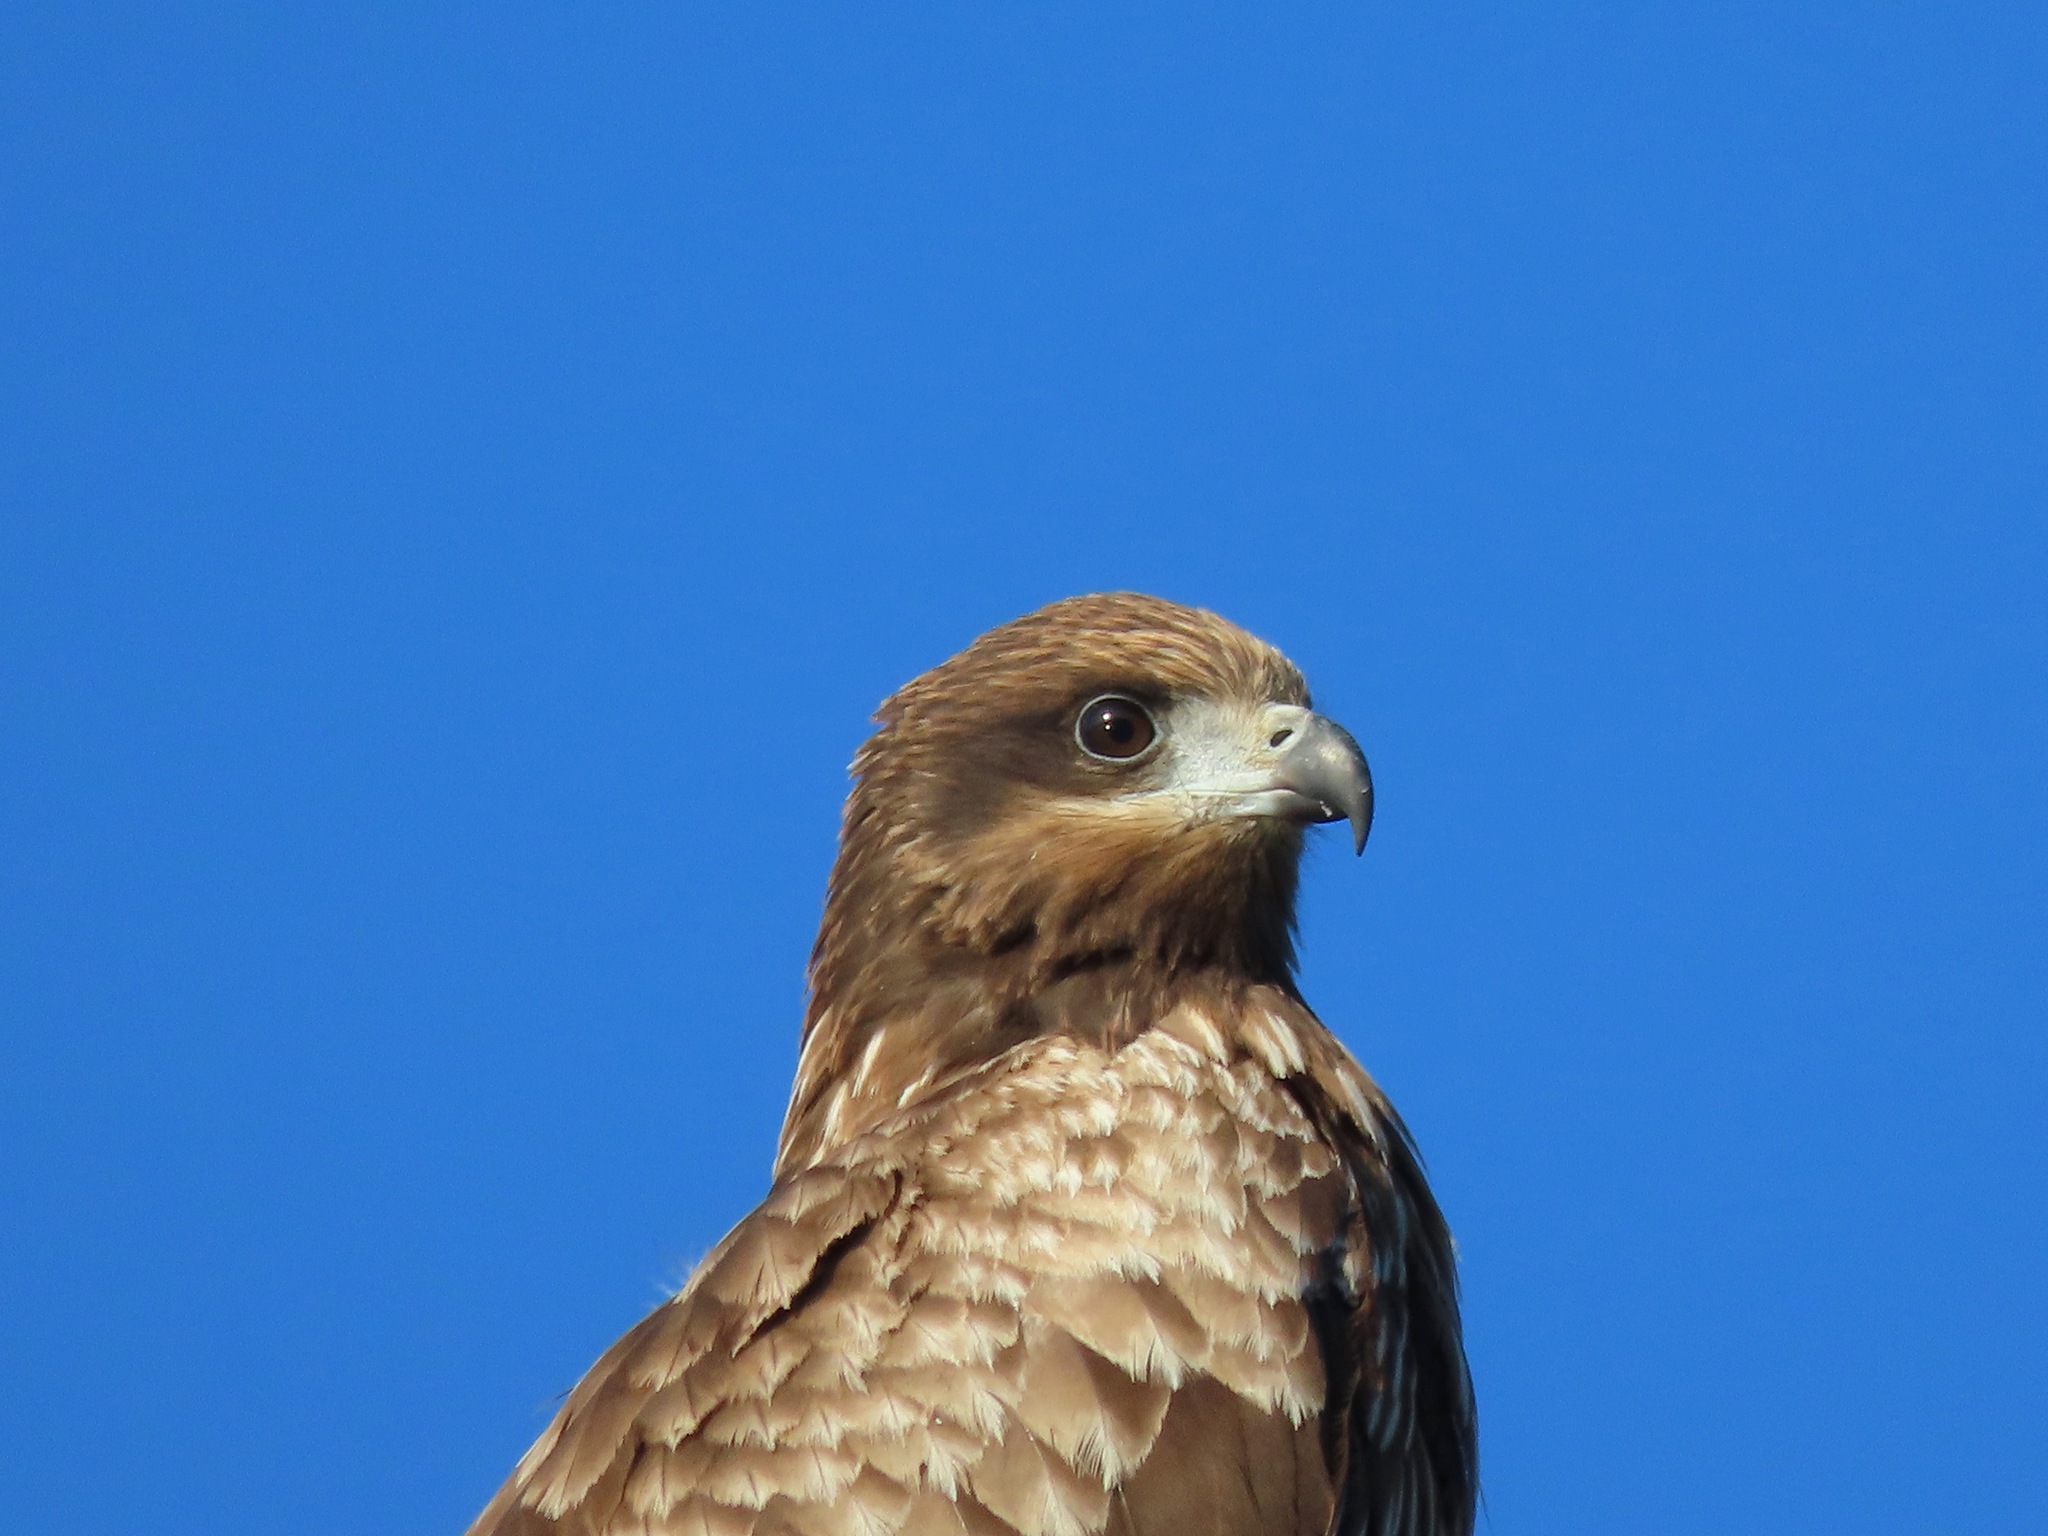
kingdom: Animalia
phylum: Chordata
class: Aves
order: Accipitriformes
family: Accipitridae
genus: Milvus
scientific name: Milvus migrans
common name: Black kite
